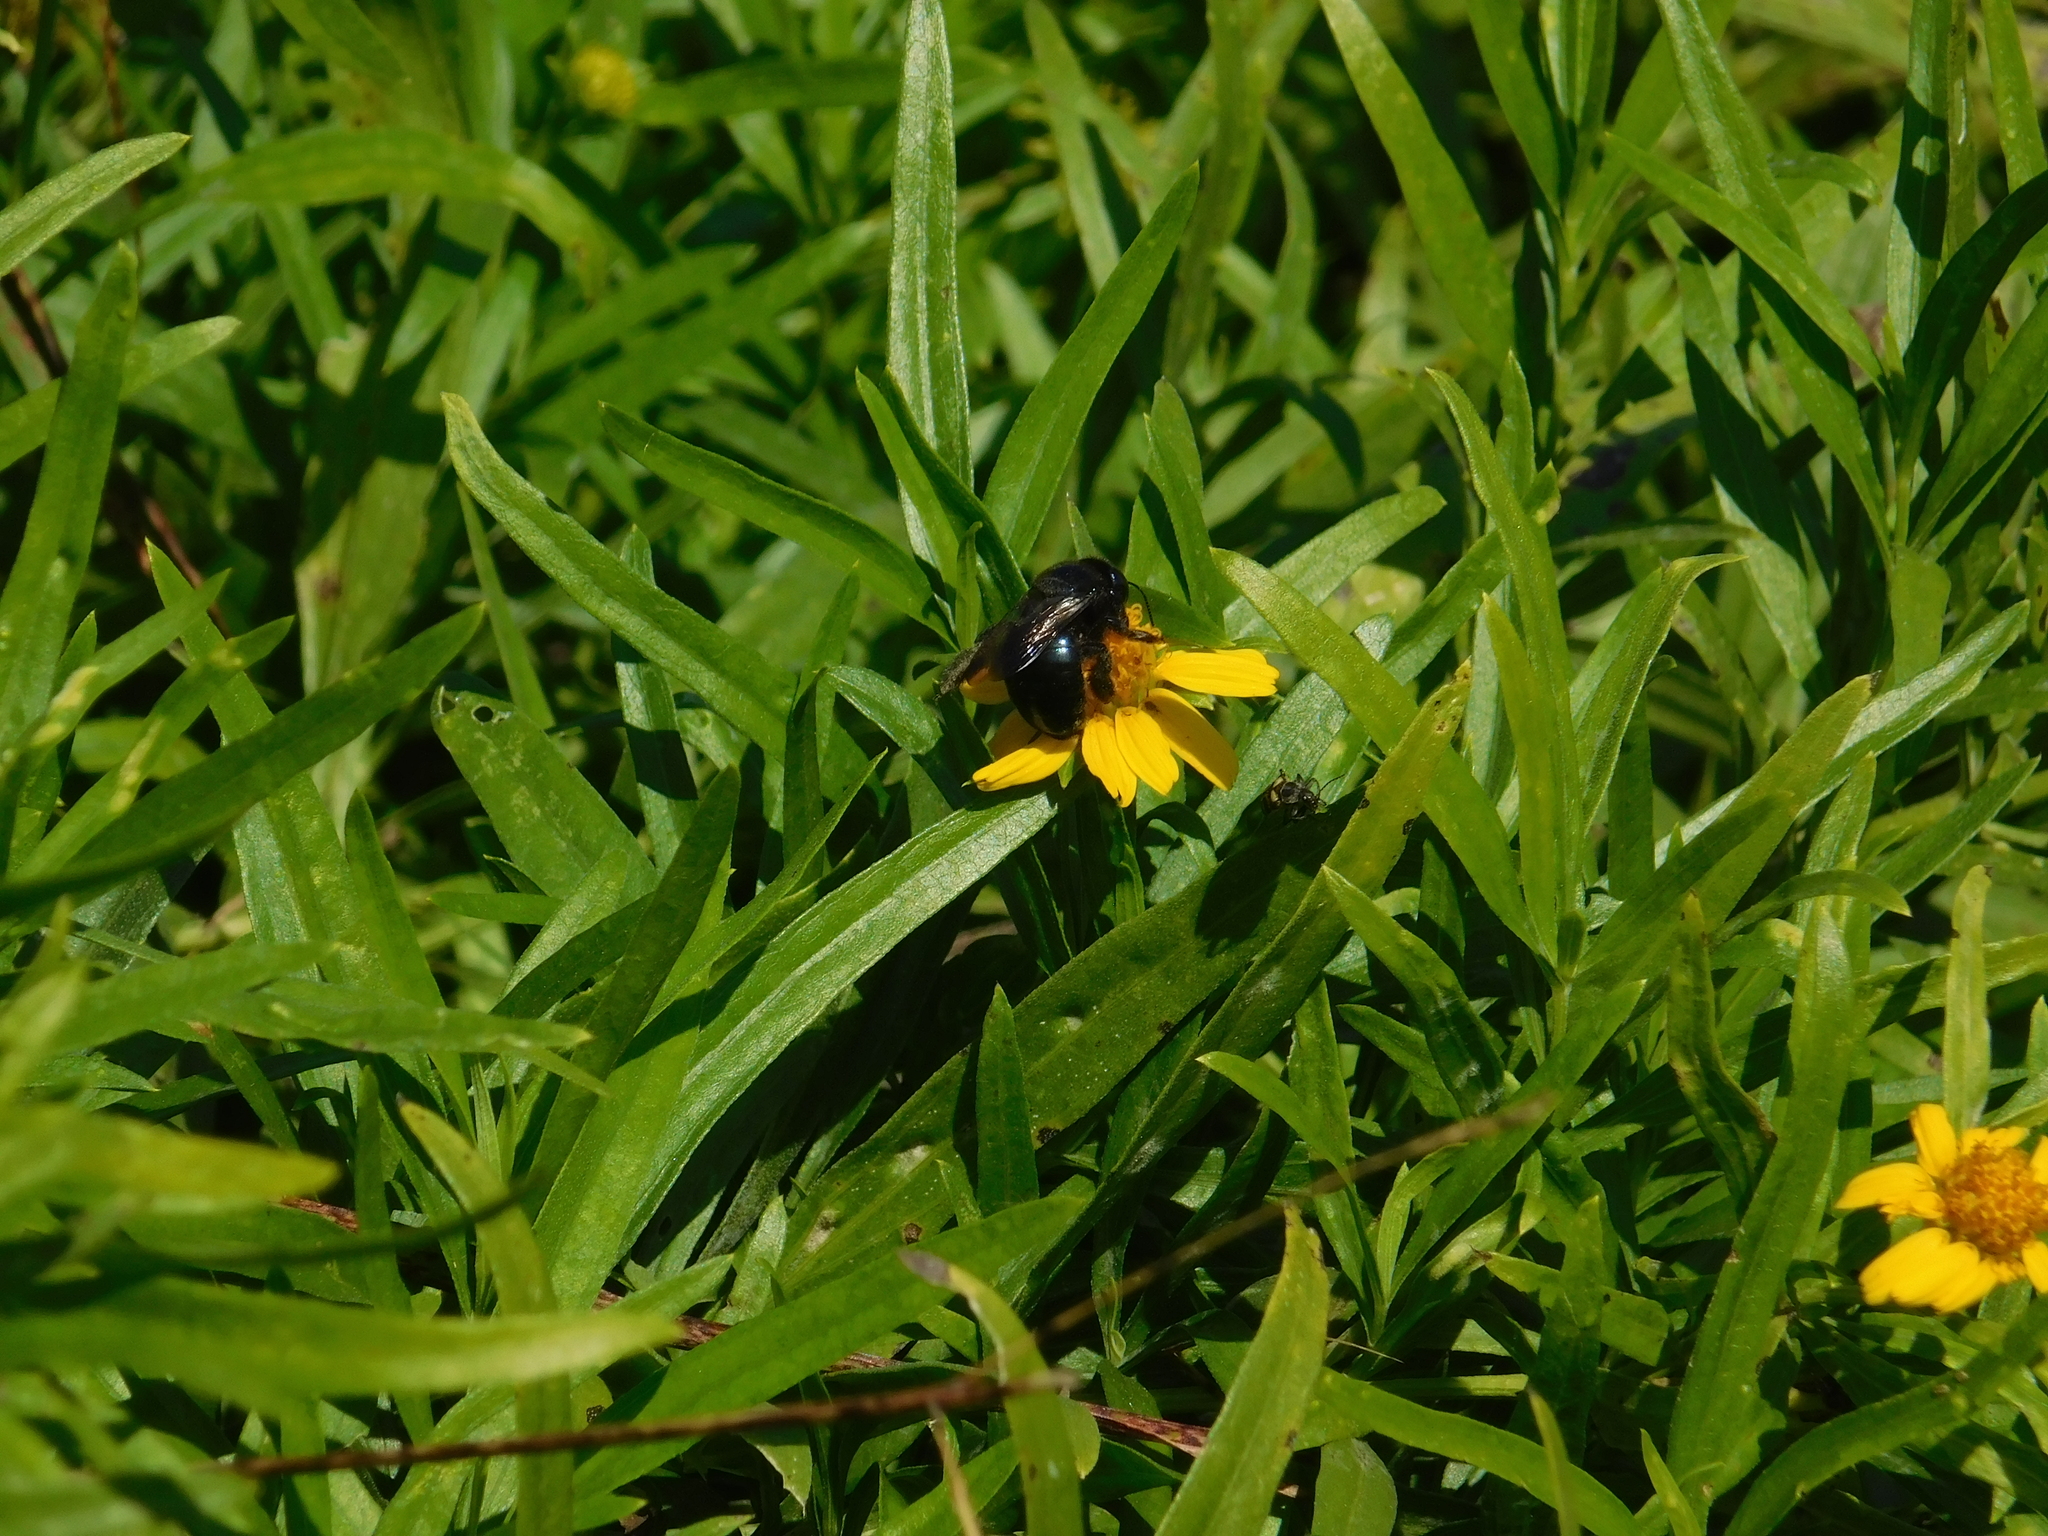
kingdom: Animalia
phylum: Arthropoda
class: Insecta
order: Hymenoptera
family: Apidae
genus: Xylocopa
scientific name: Xylocopa splendidula
